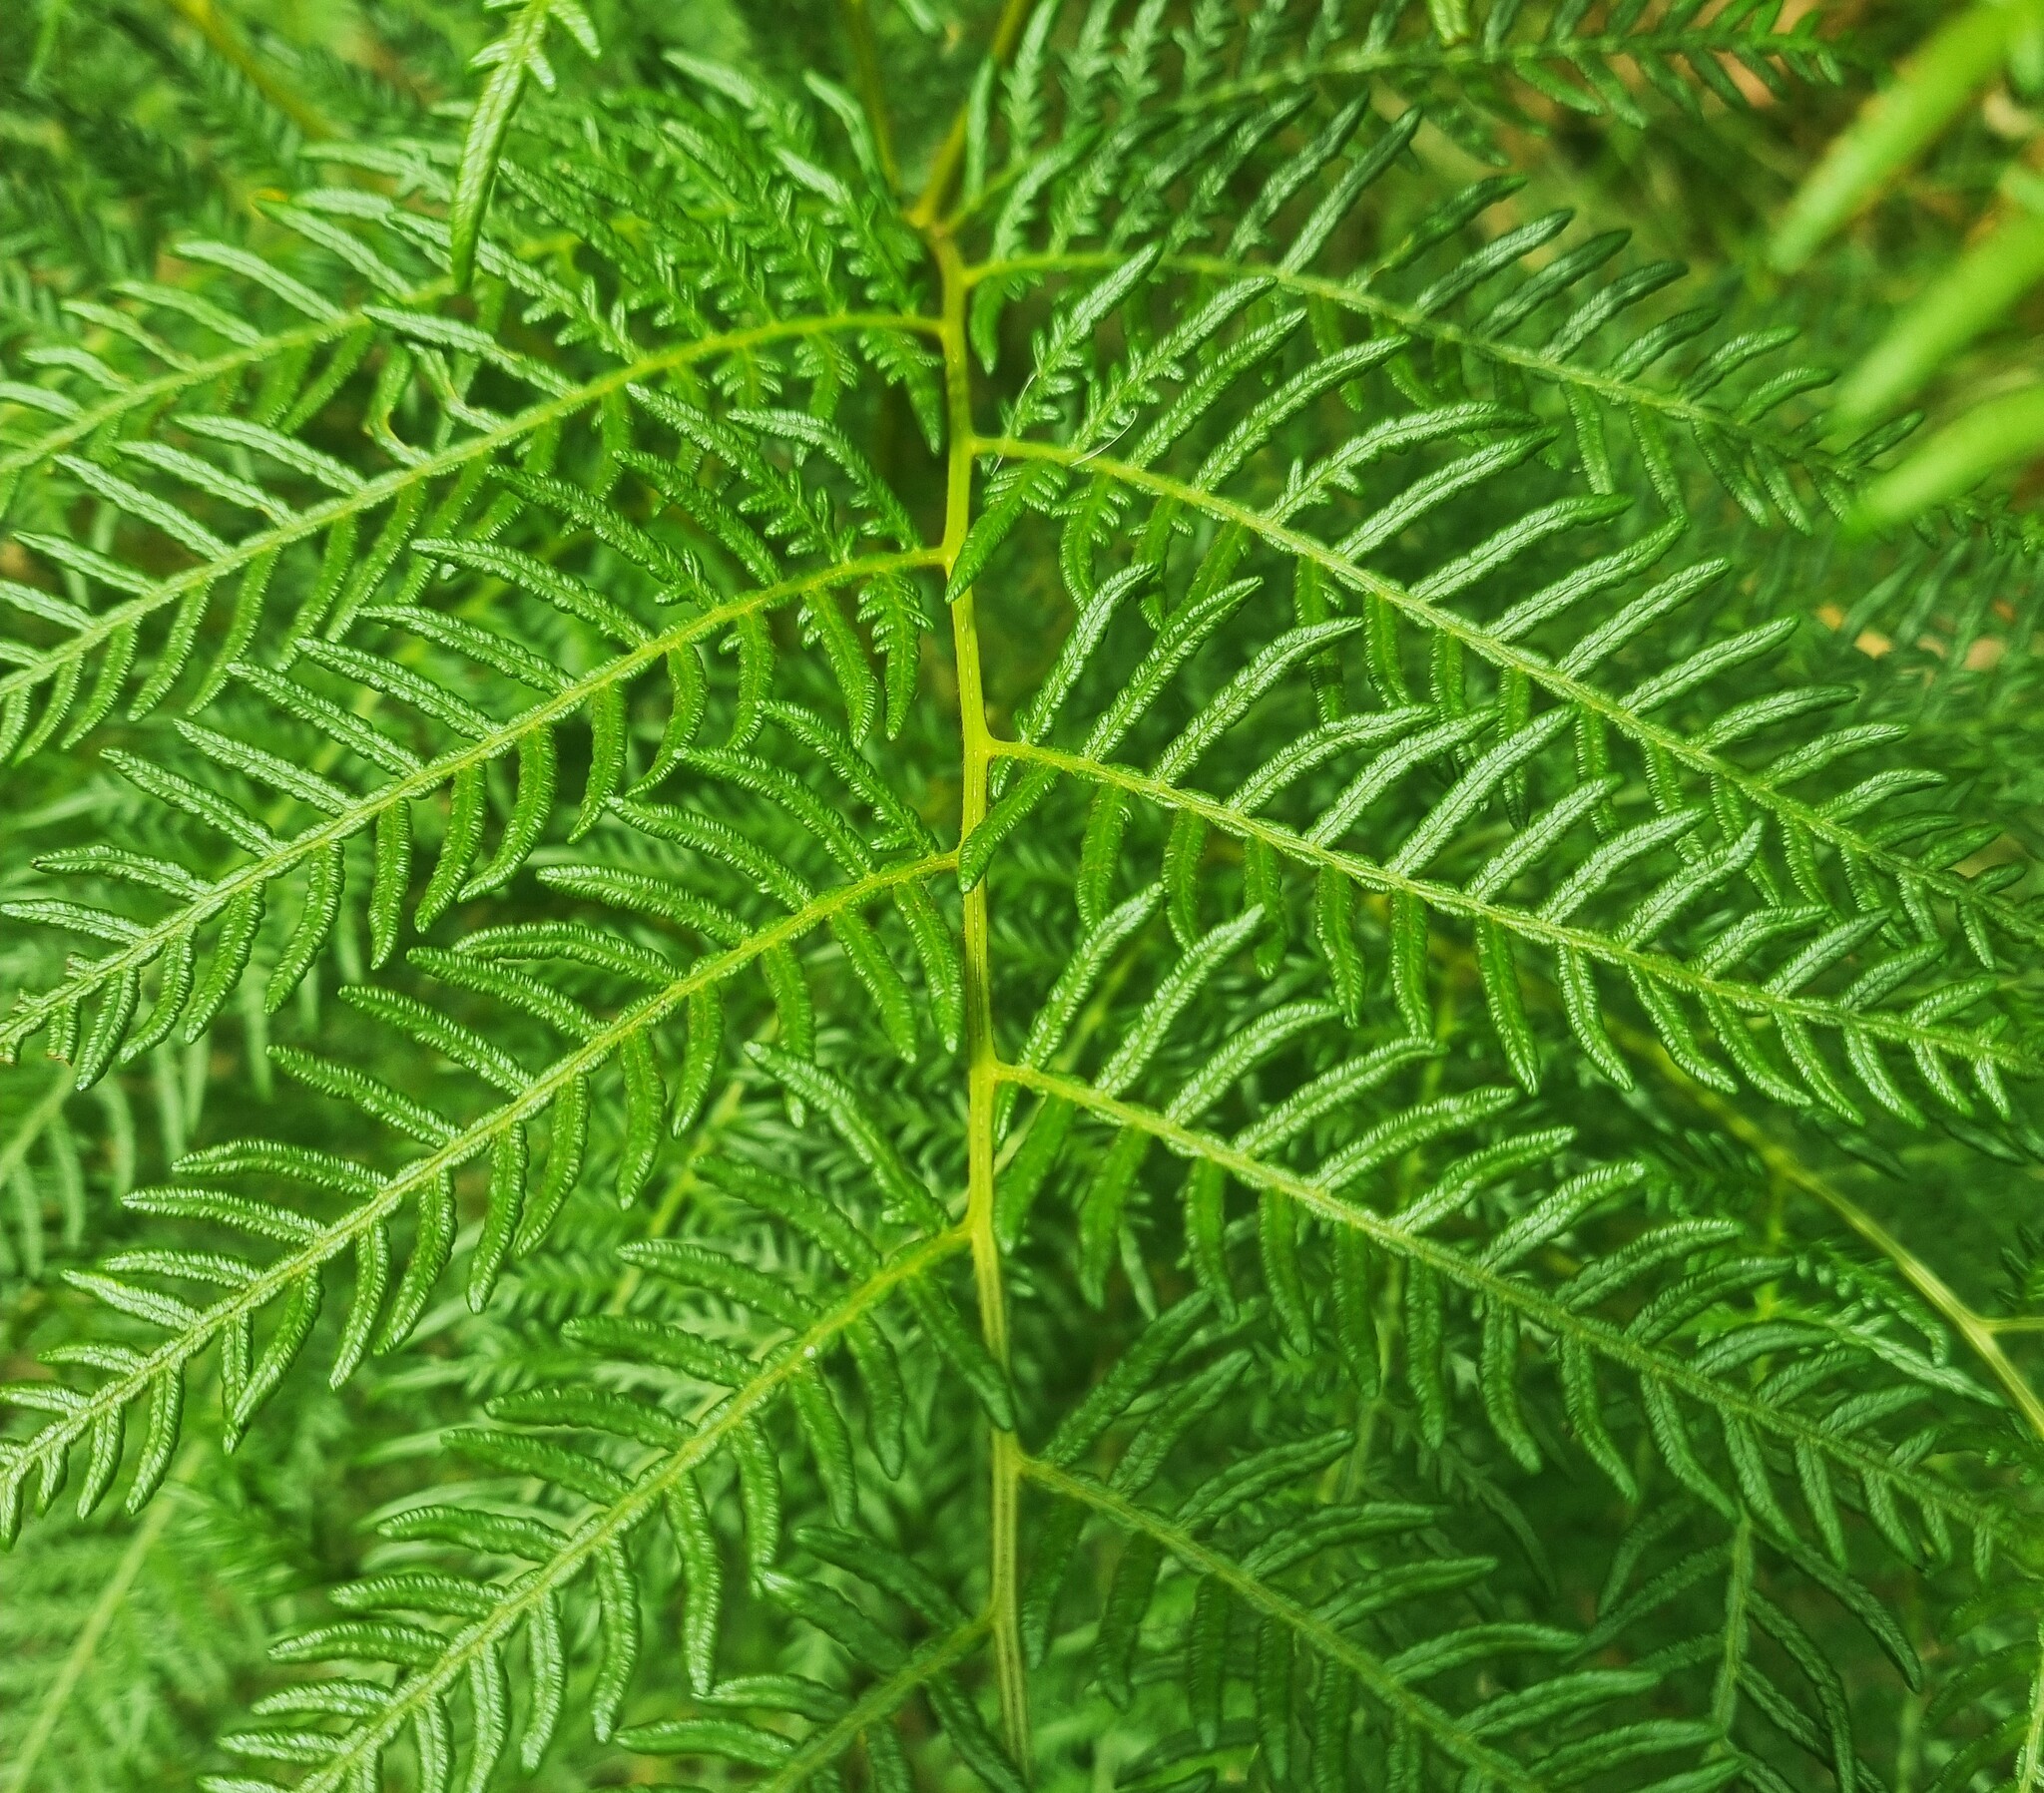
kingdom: Plantae
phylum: Tracheophyta
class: Polypodiopsida
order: Polypodiales
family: Dennstaedtiaceae
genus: Pteridium
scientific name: Pteridium esculentum
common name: Bracken fern
